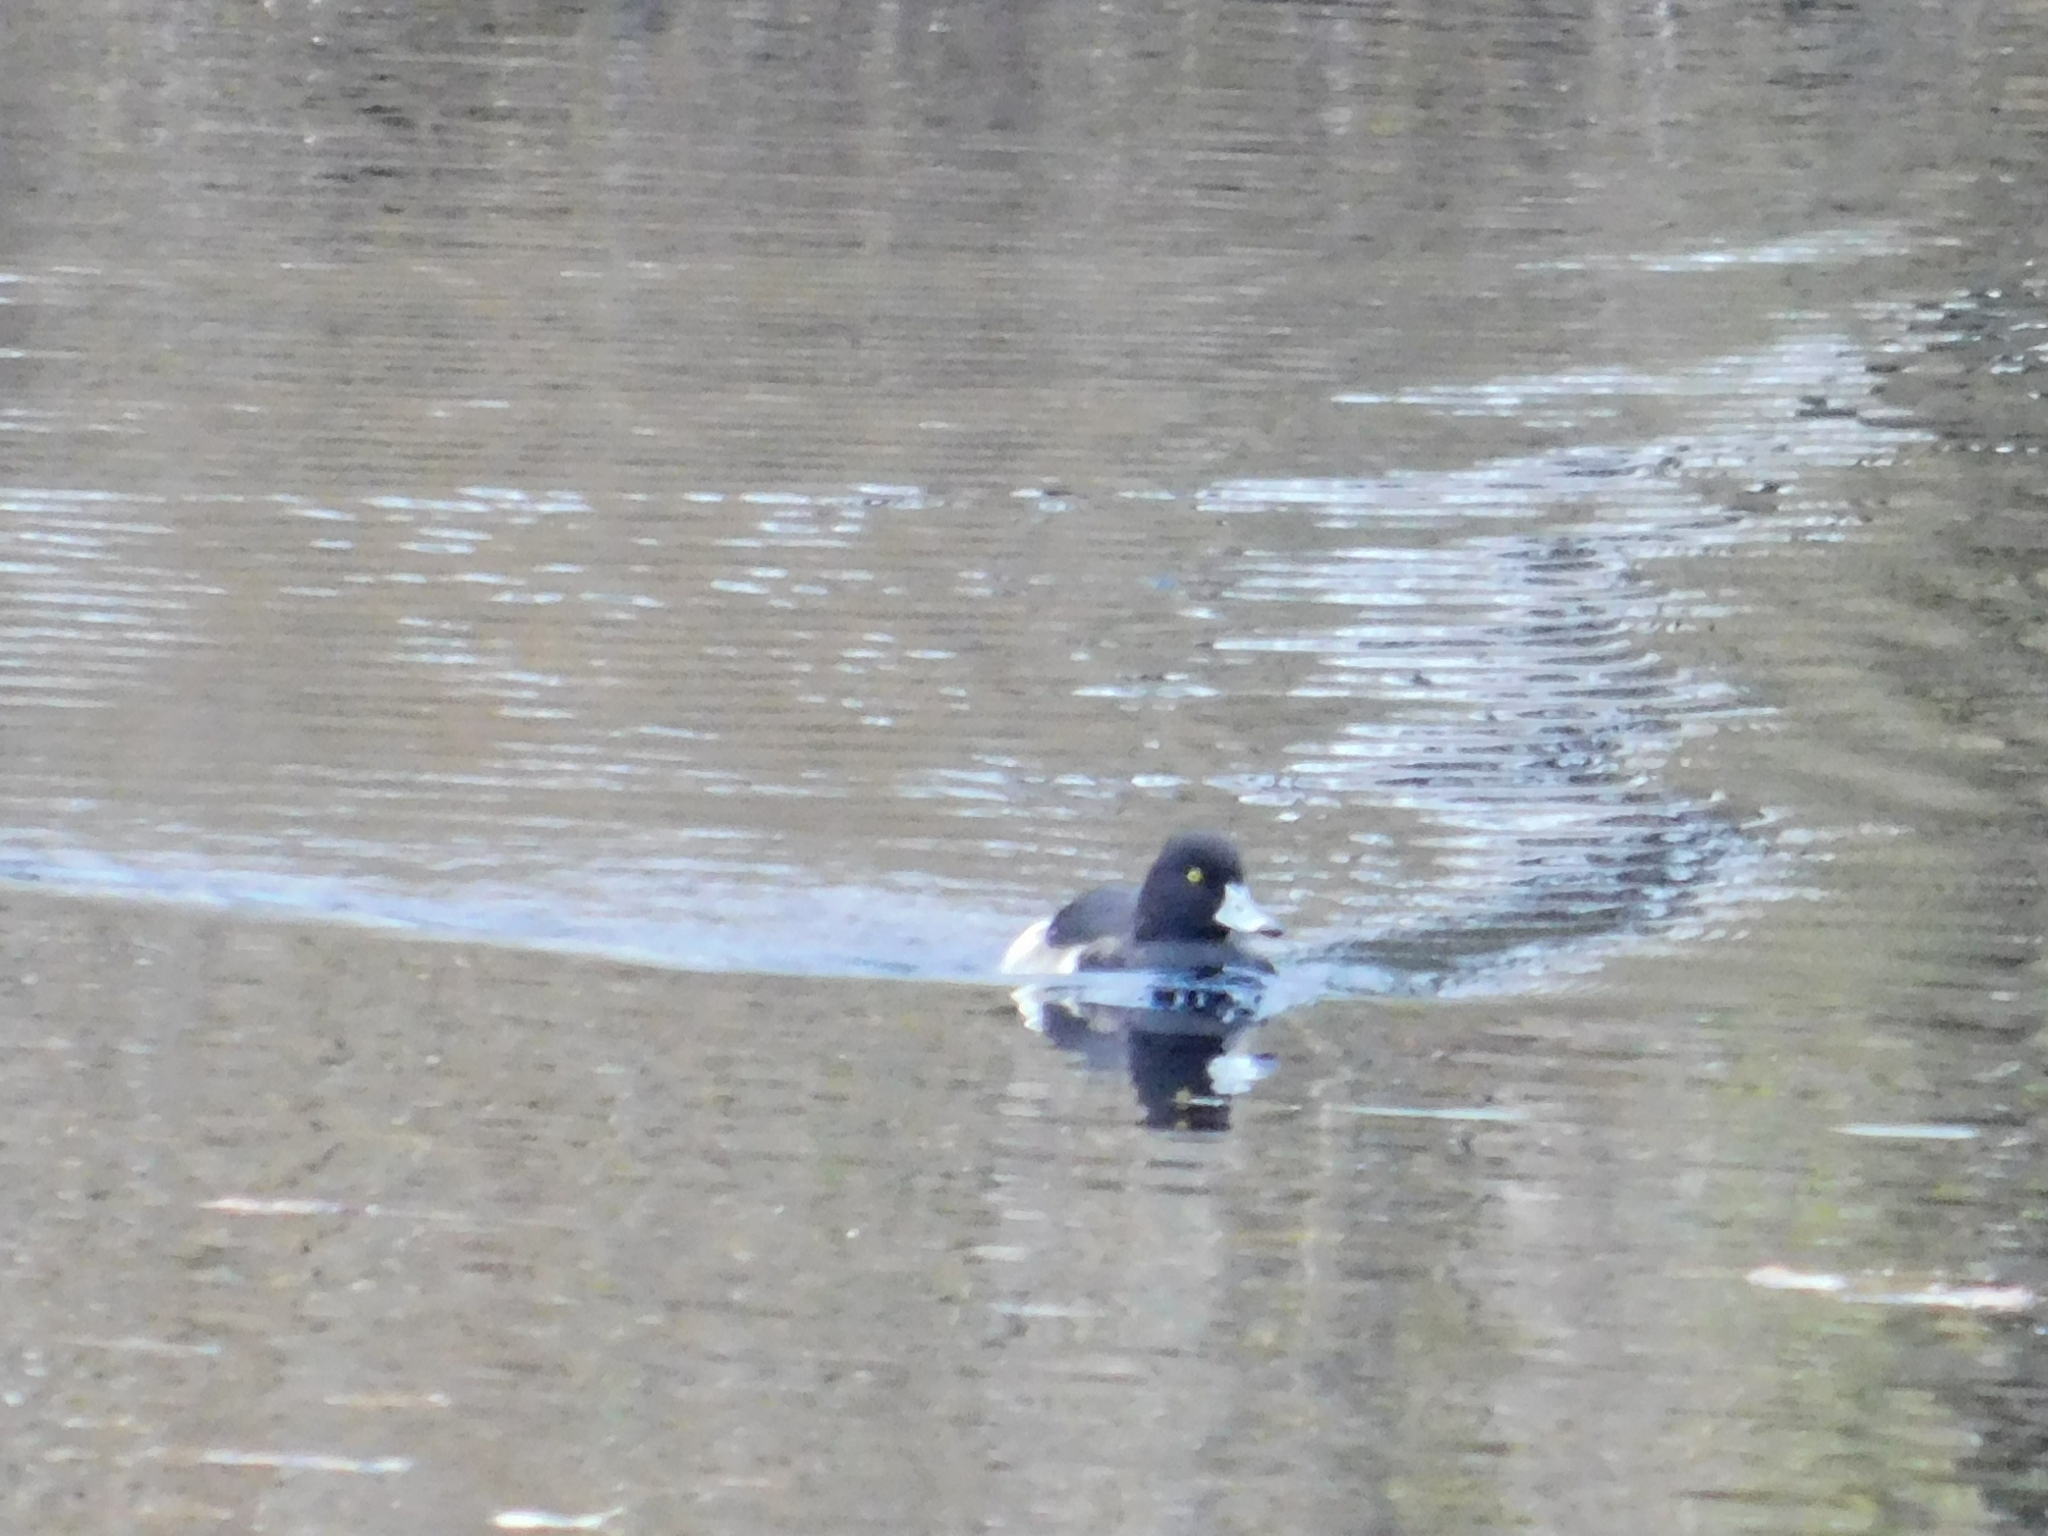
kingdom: Animalia
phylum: Chordata
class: Aves
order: Anseriformes
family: Anatidae
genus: Aythya
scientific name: Aythya fuligula
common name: Tufted duck
